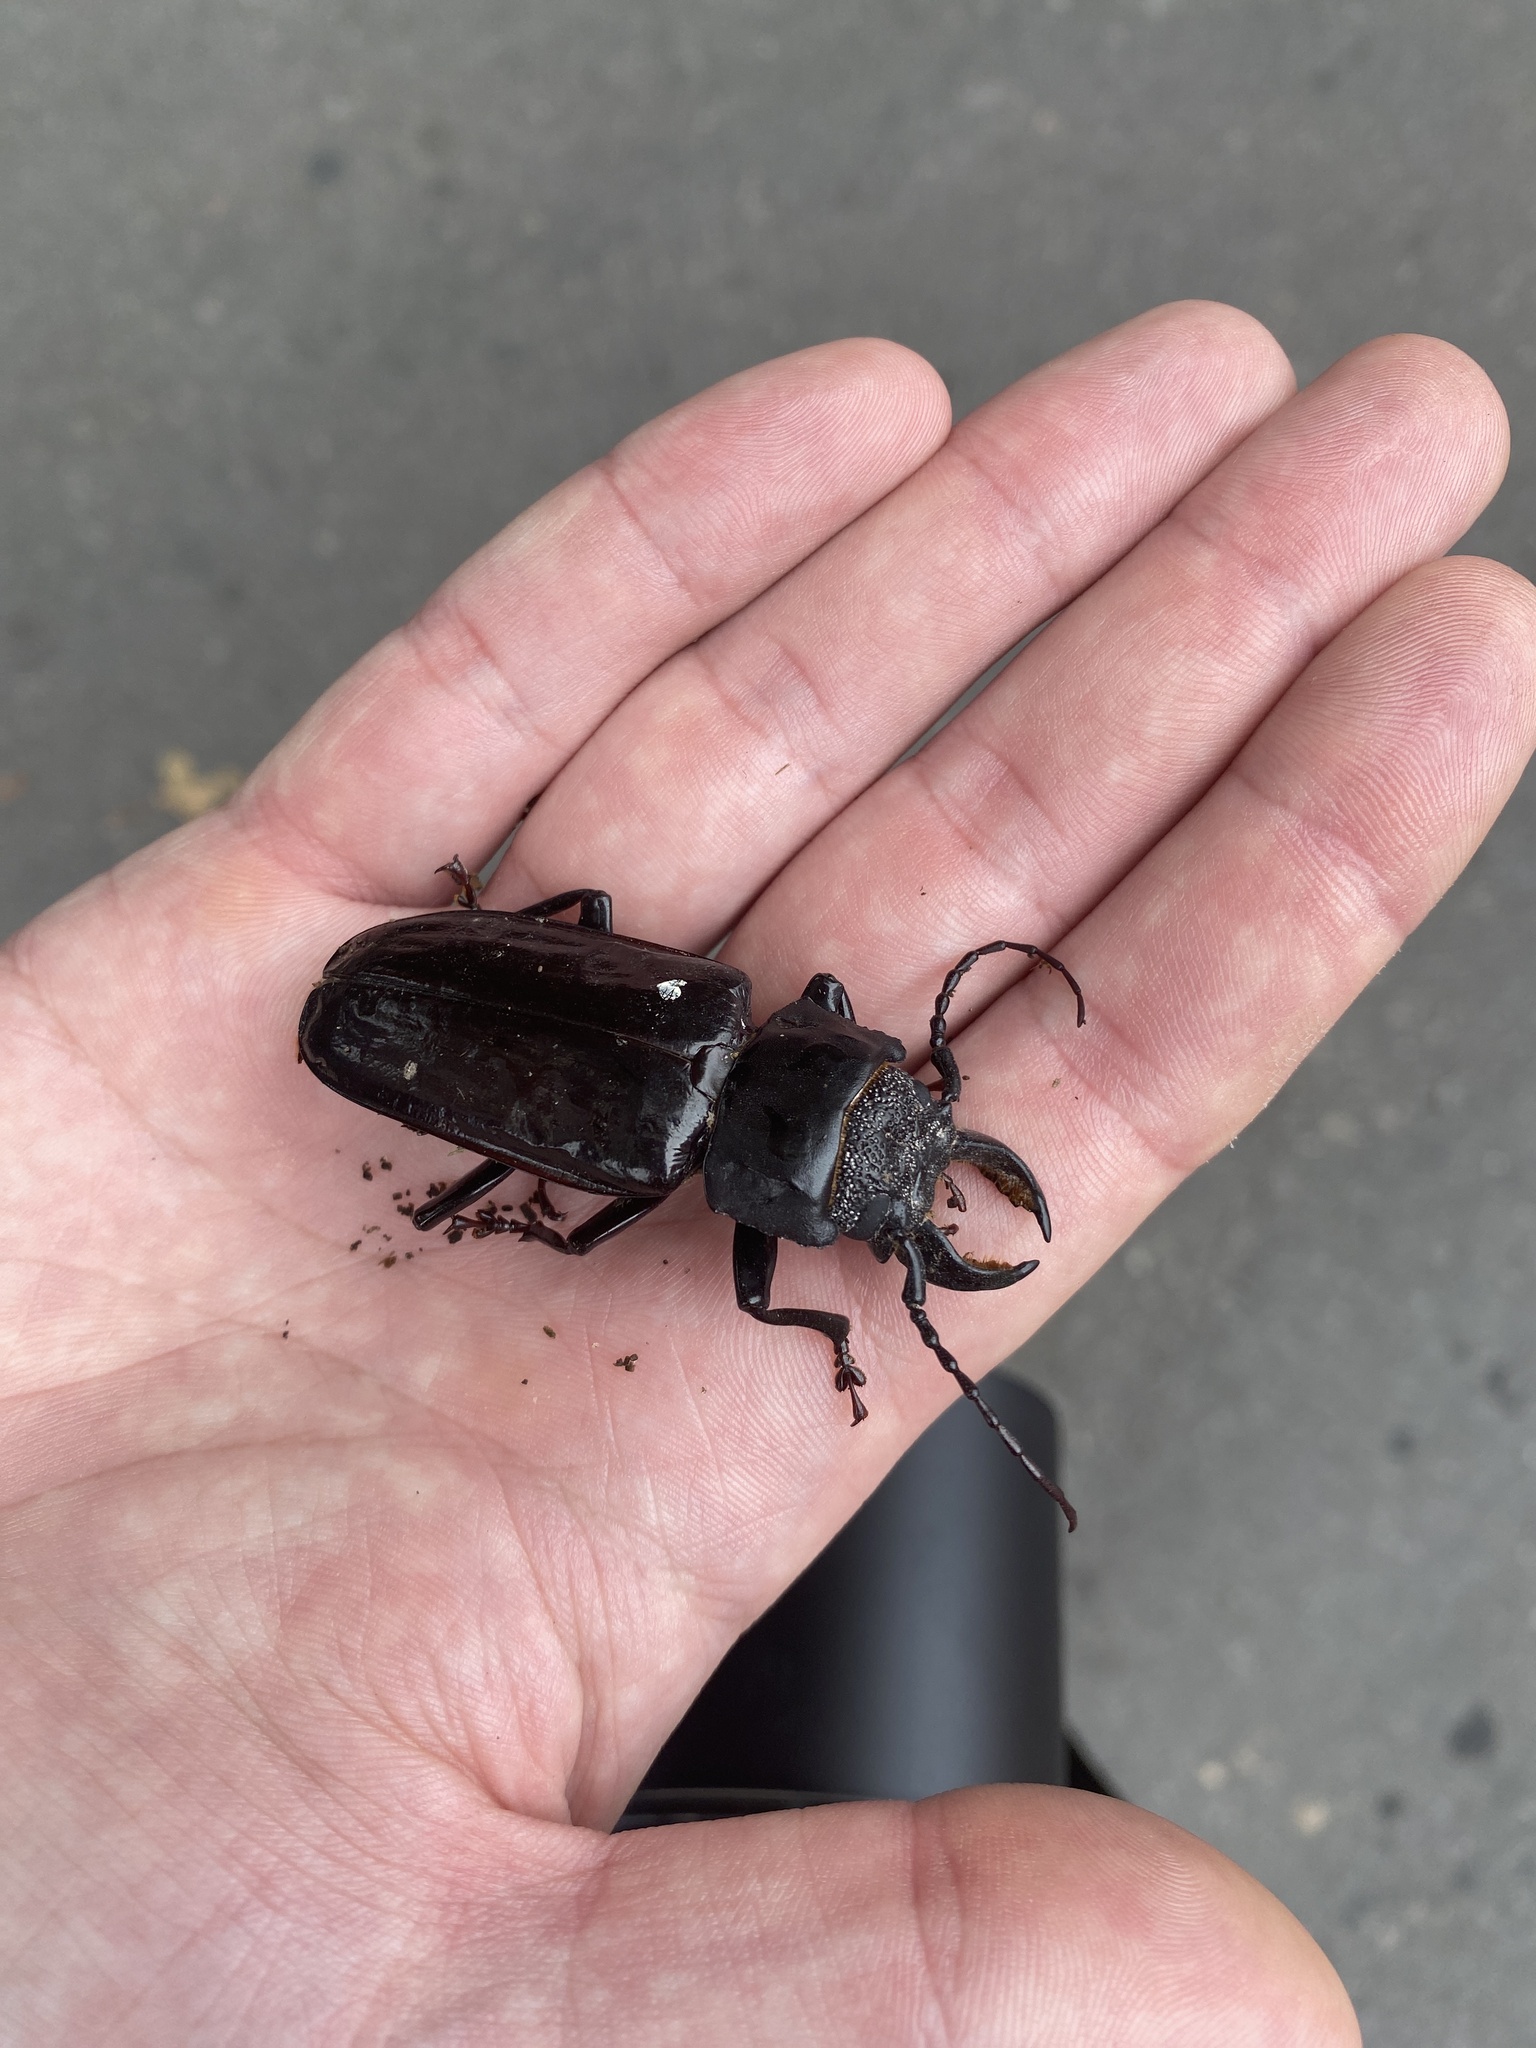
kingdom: Animalia
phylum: Arthropoda
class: Insecta
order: Coleoptera
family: Cerambycidae
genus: Mallodon
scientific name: Mallodon dasystomum
